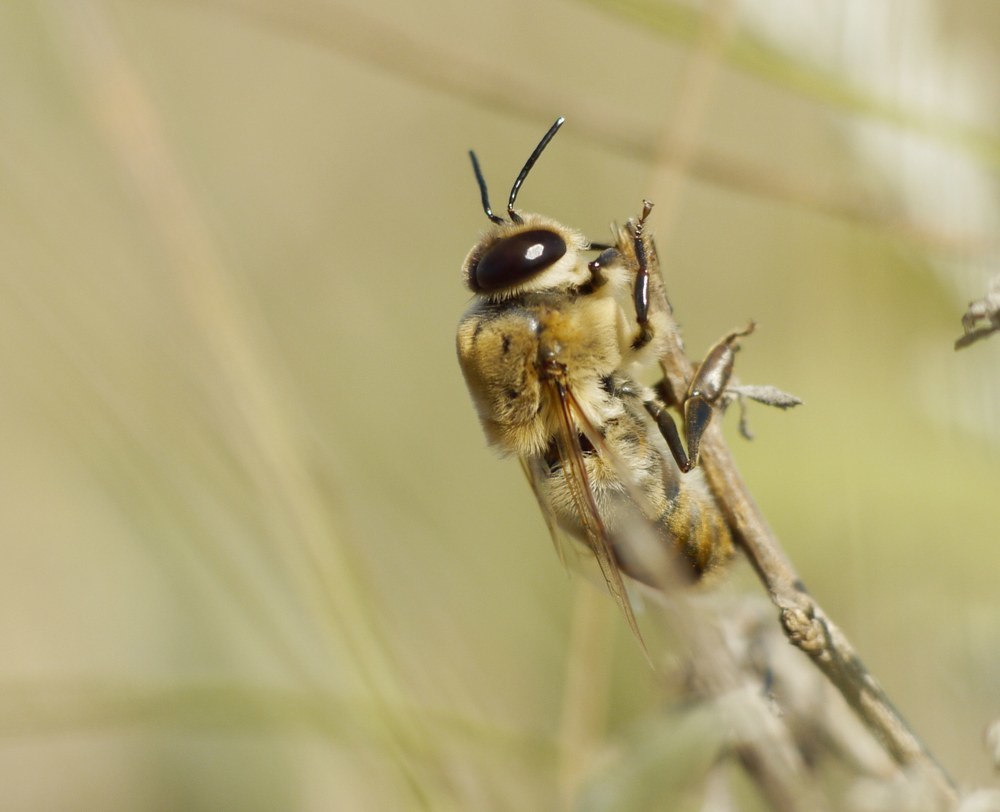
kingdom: Animalia
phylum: Arthropoda
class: Insecta
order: Hymenoptera
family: Apidae
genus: Apis
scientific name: Apis mellifera
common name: Honey bee
